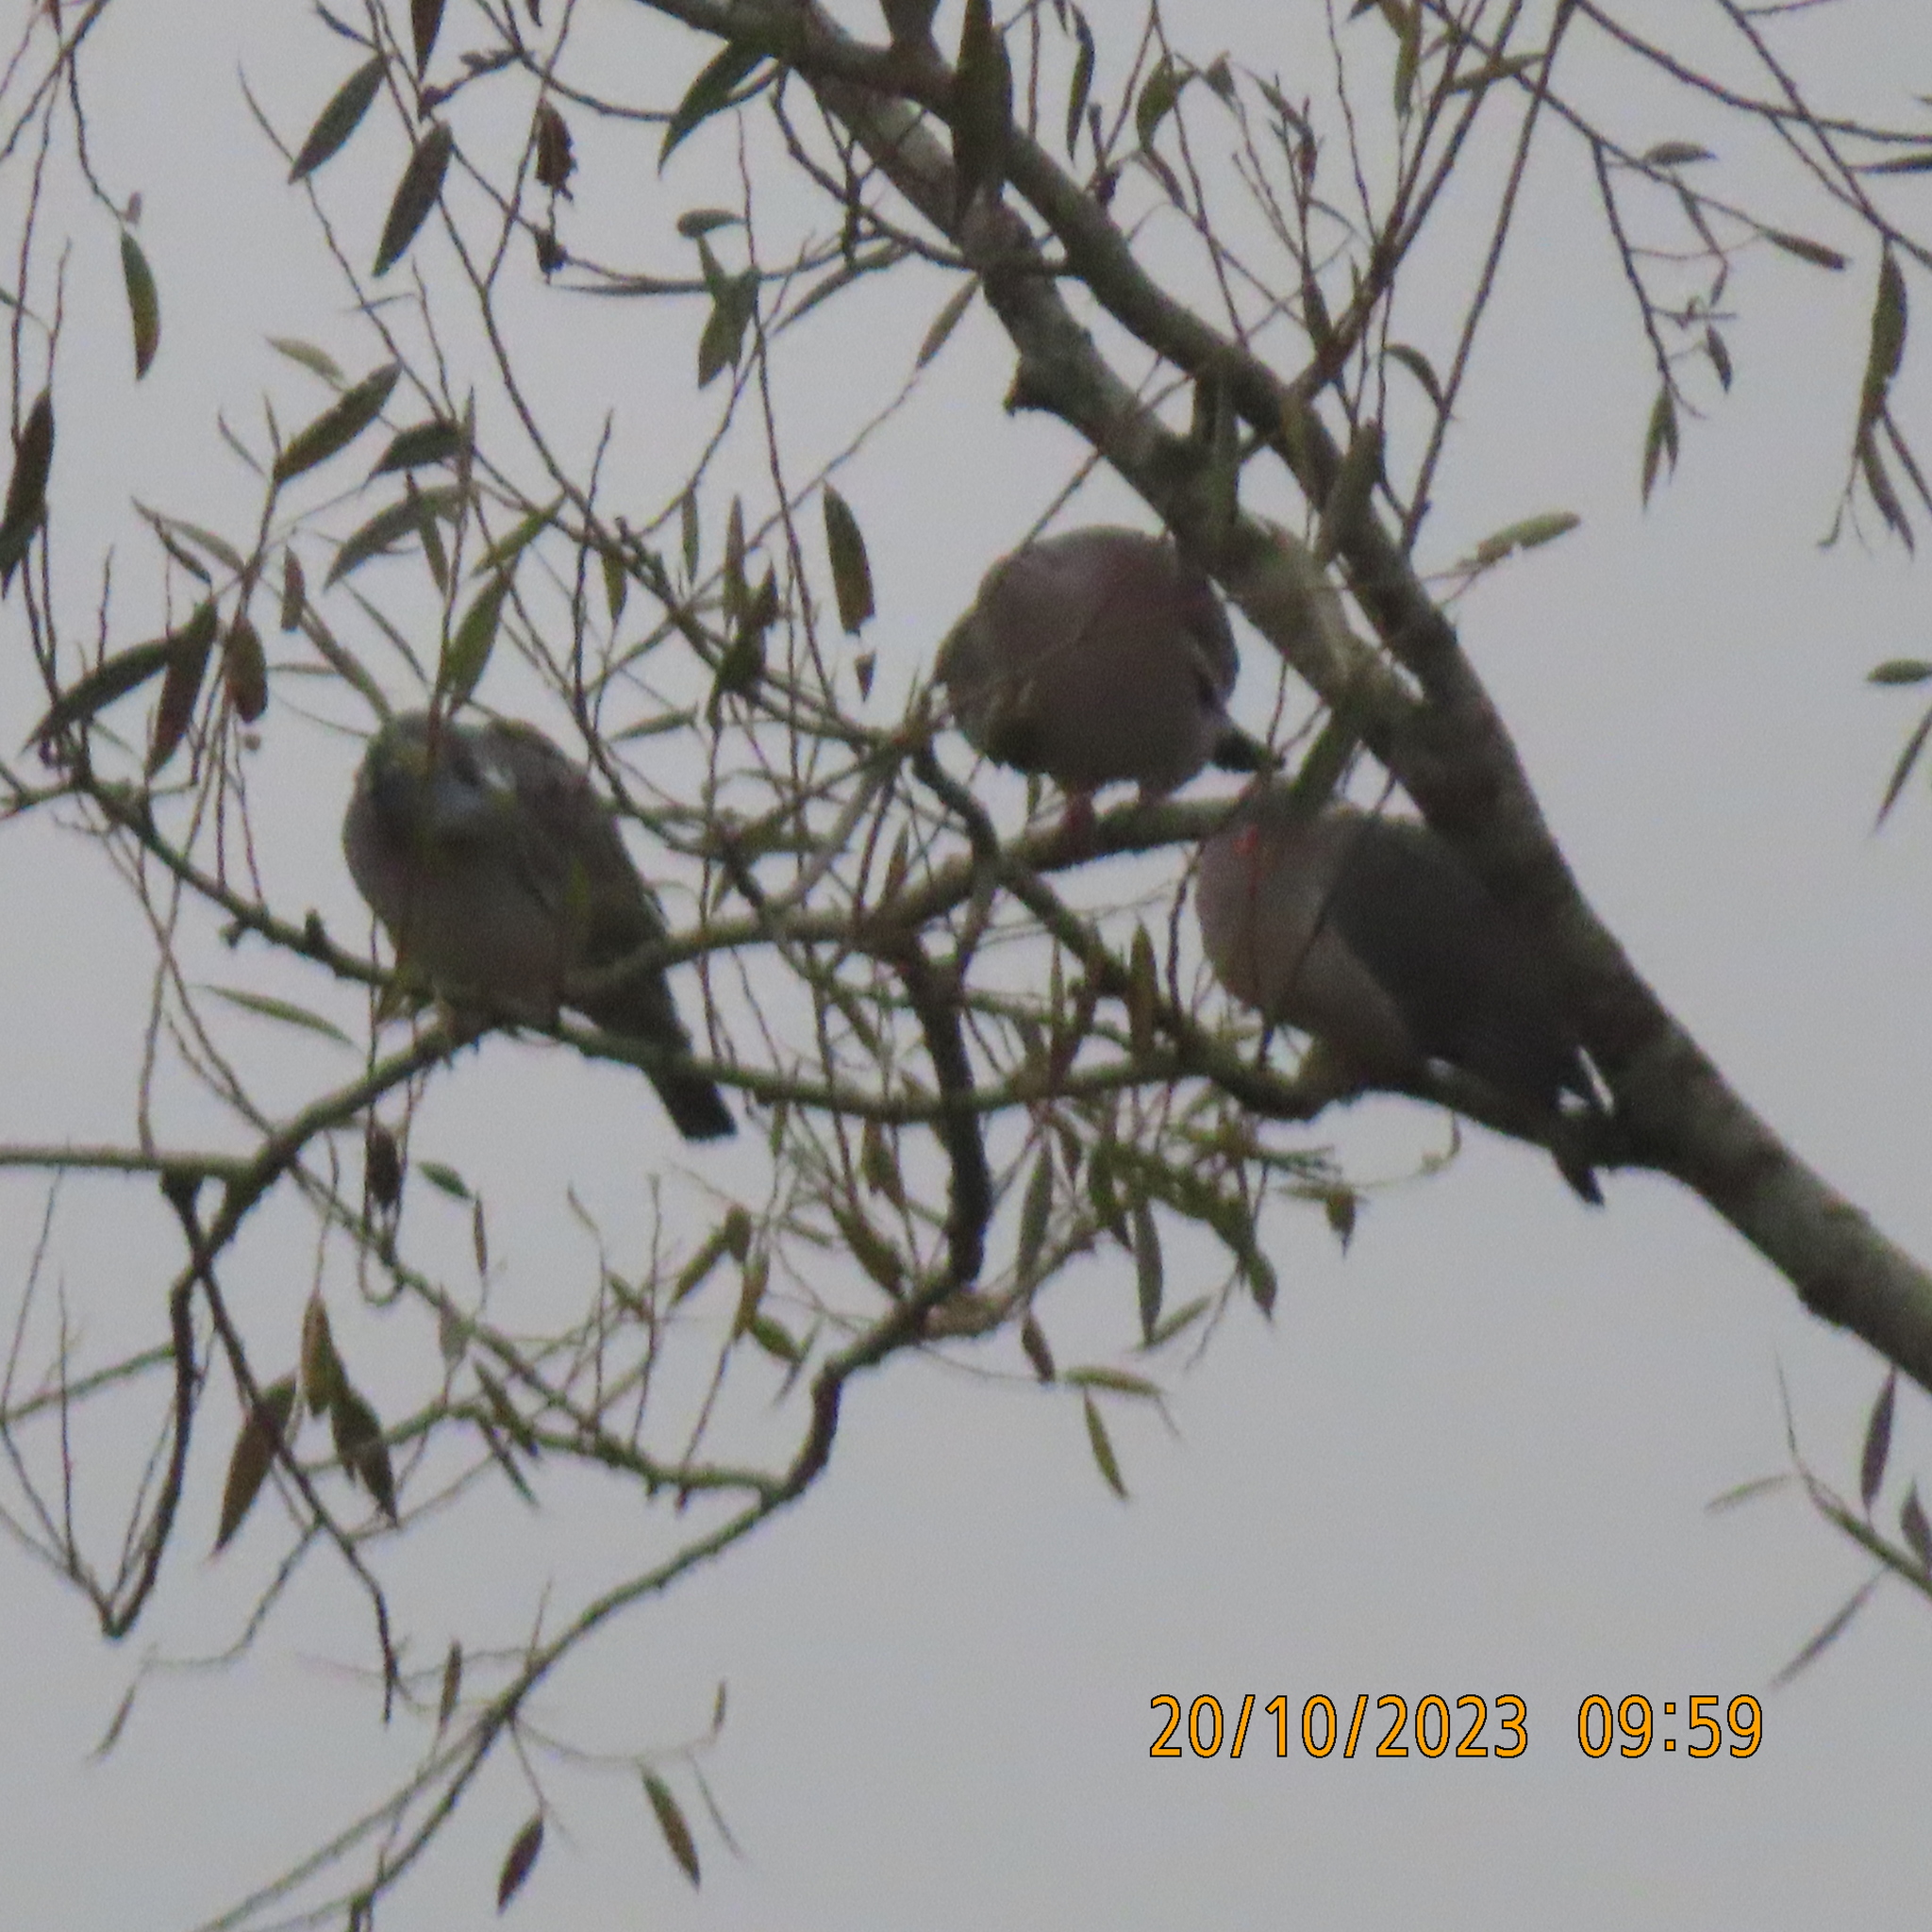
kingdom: Animalia
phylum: Chordata
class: Aves
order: Columbiformes
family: Columbidae
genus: Columba
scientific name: Columba palumbus
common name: Common wood pigeon
